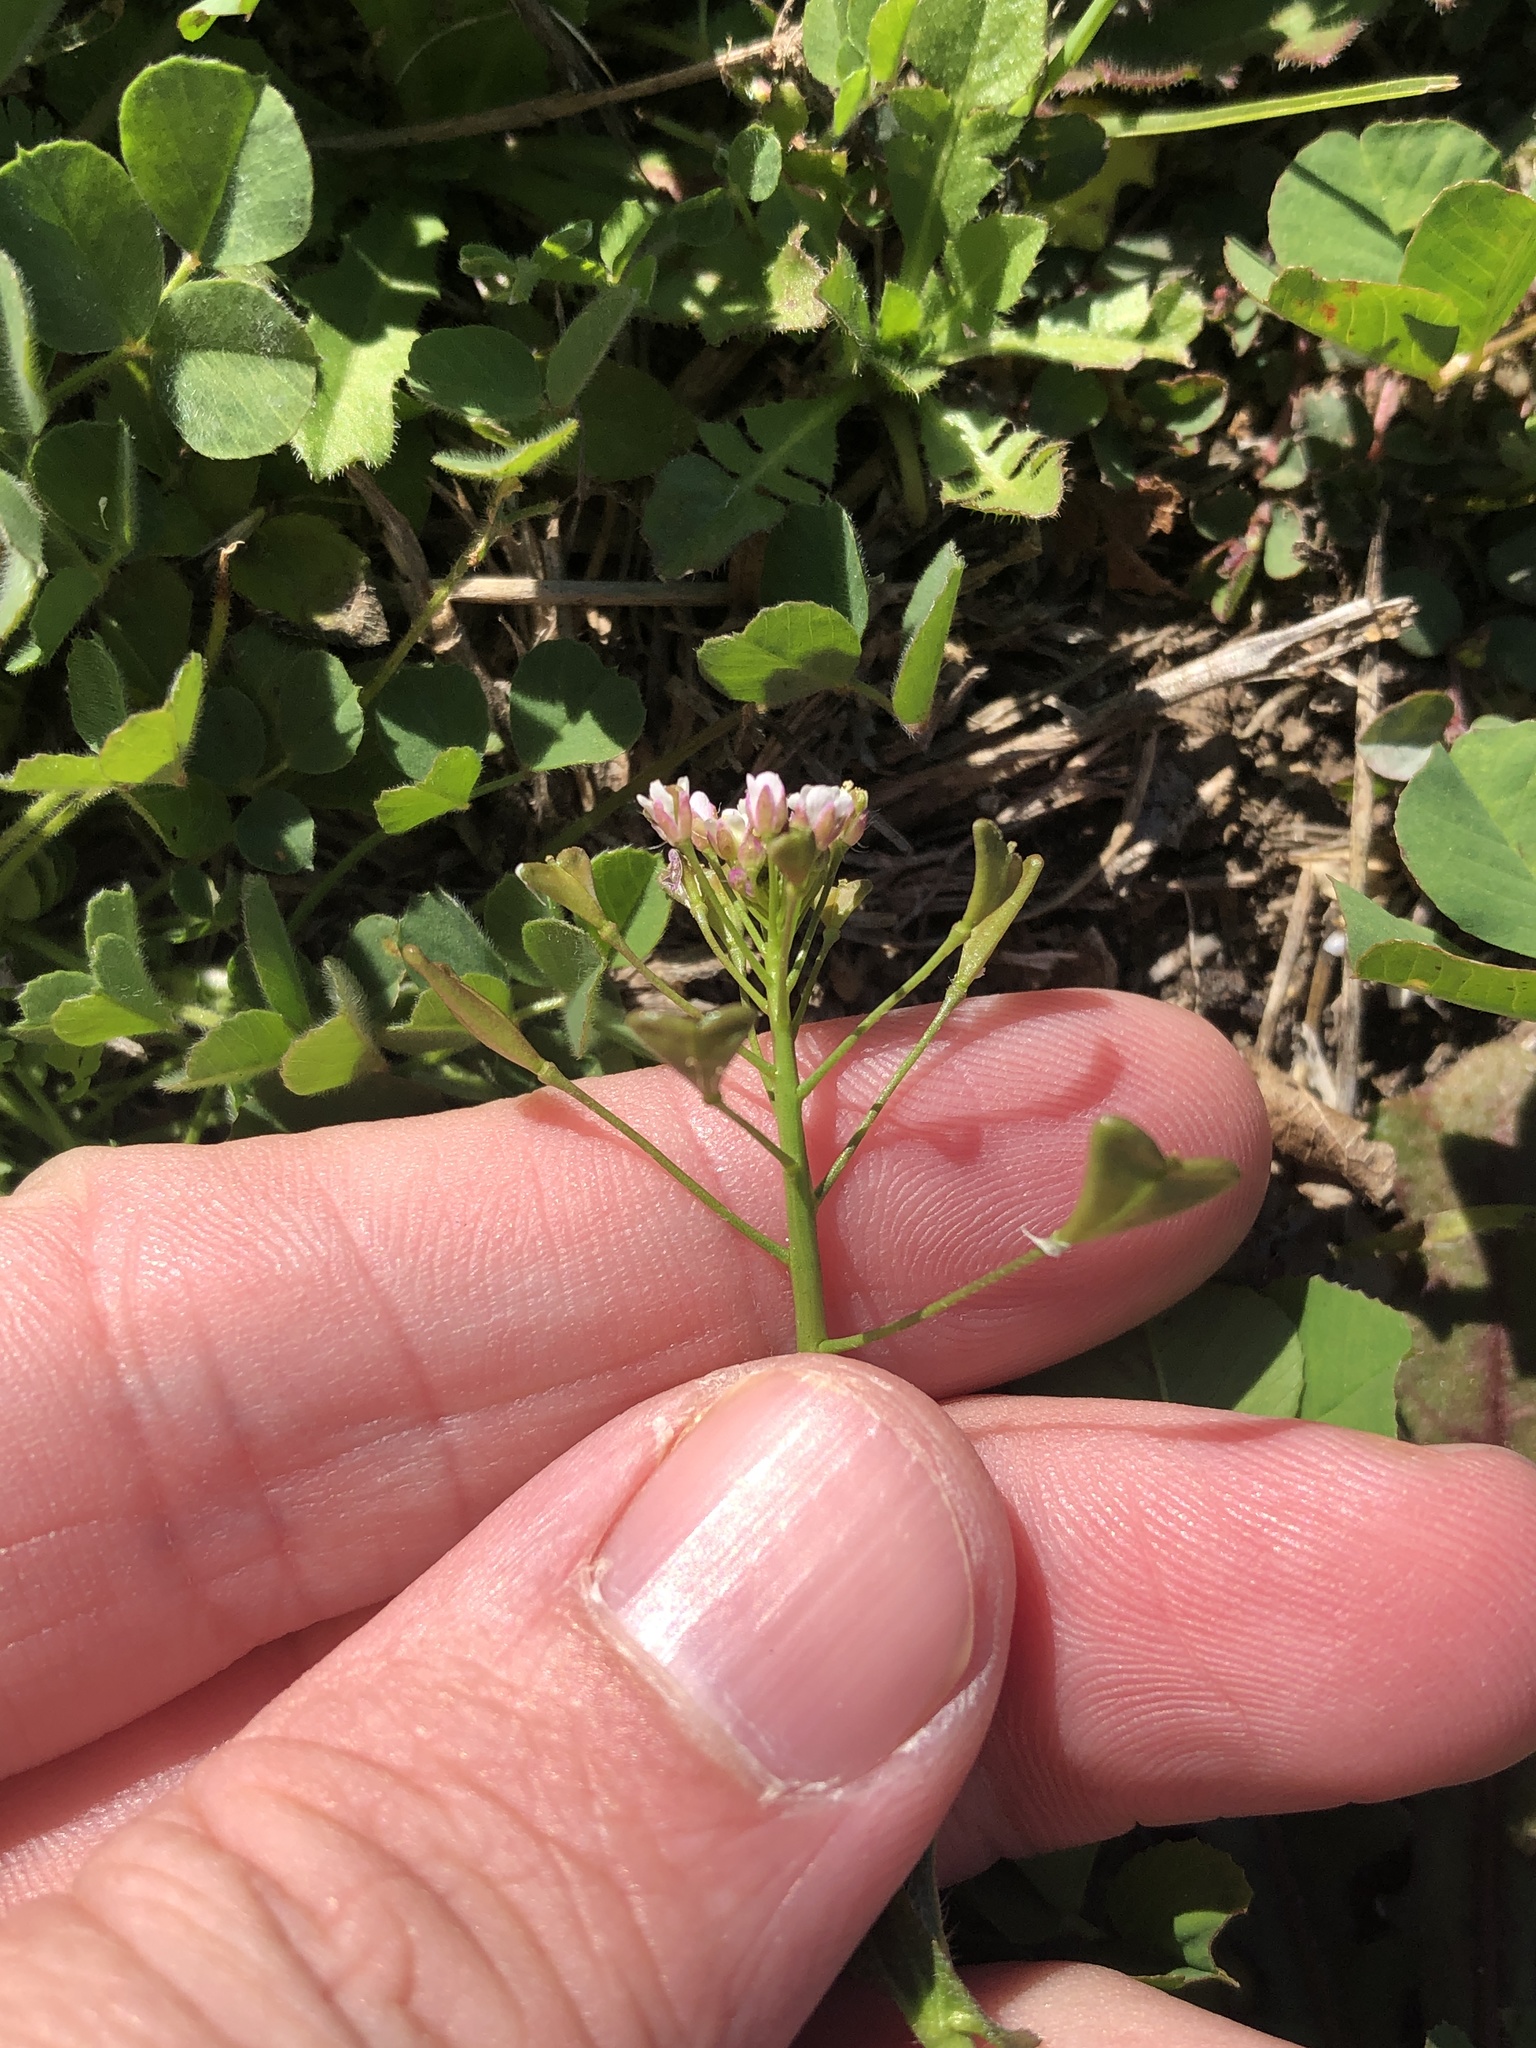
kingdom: Plantae
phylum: Tracheophyta
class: Magnoliopsida
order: Brassicales
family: Brassicaceae
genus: Capsella
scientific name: Capsella bursa-pastoris
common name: Shepherd's purse
